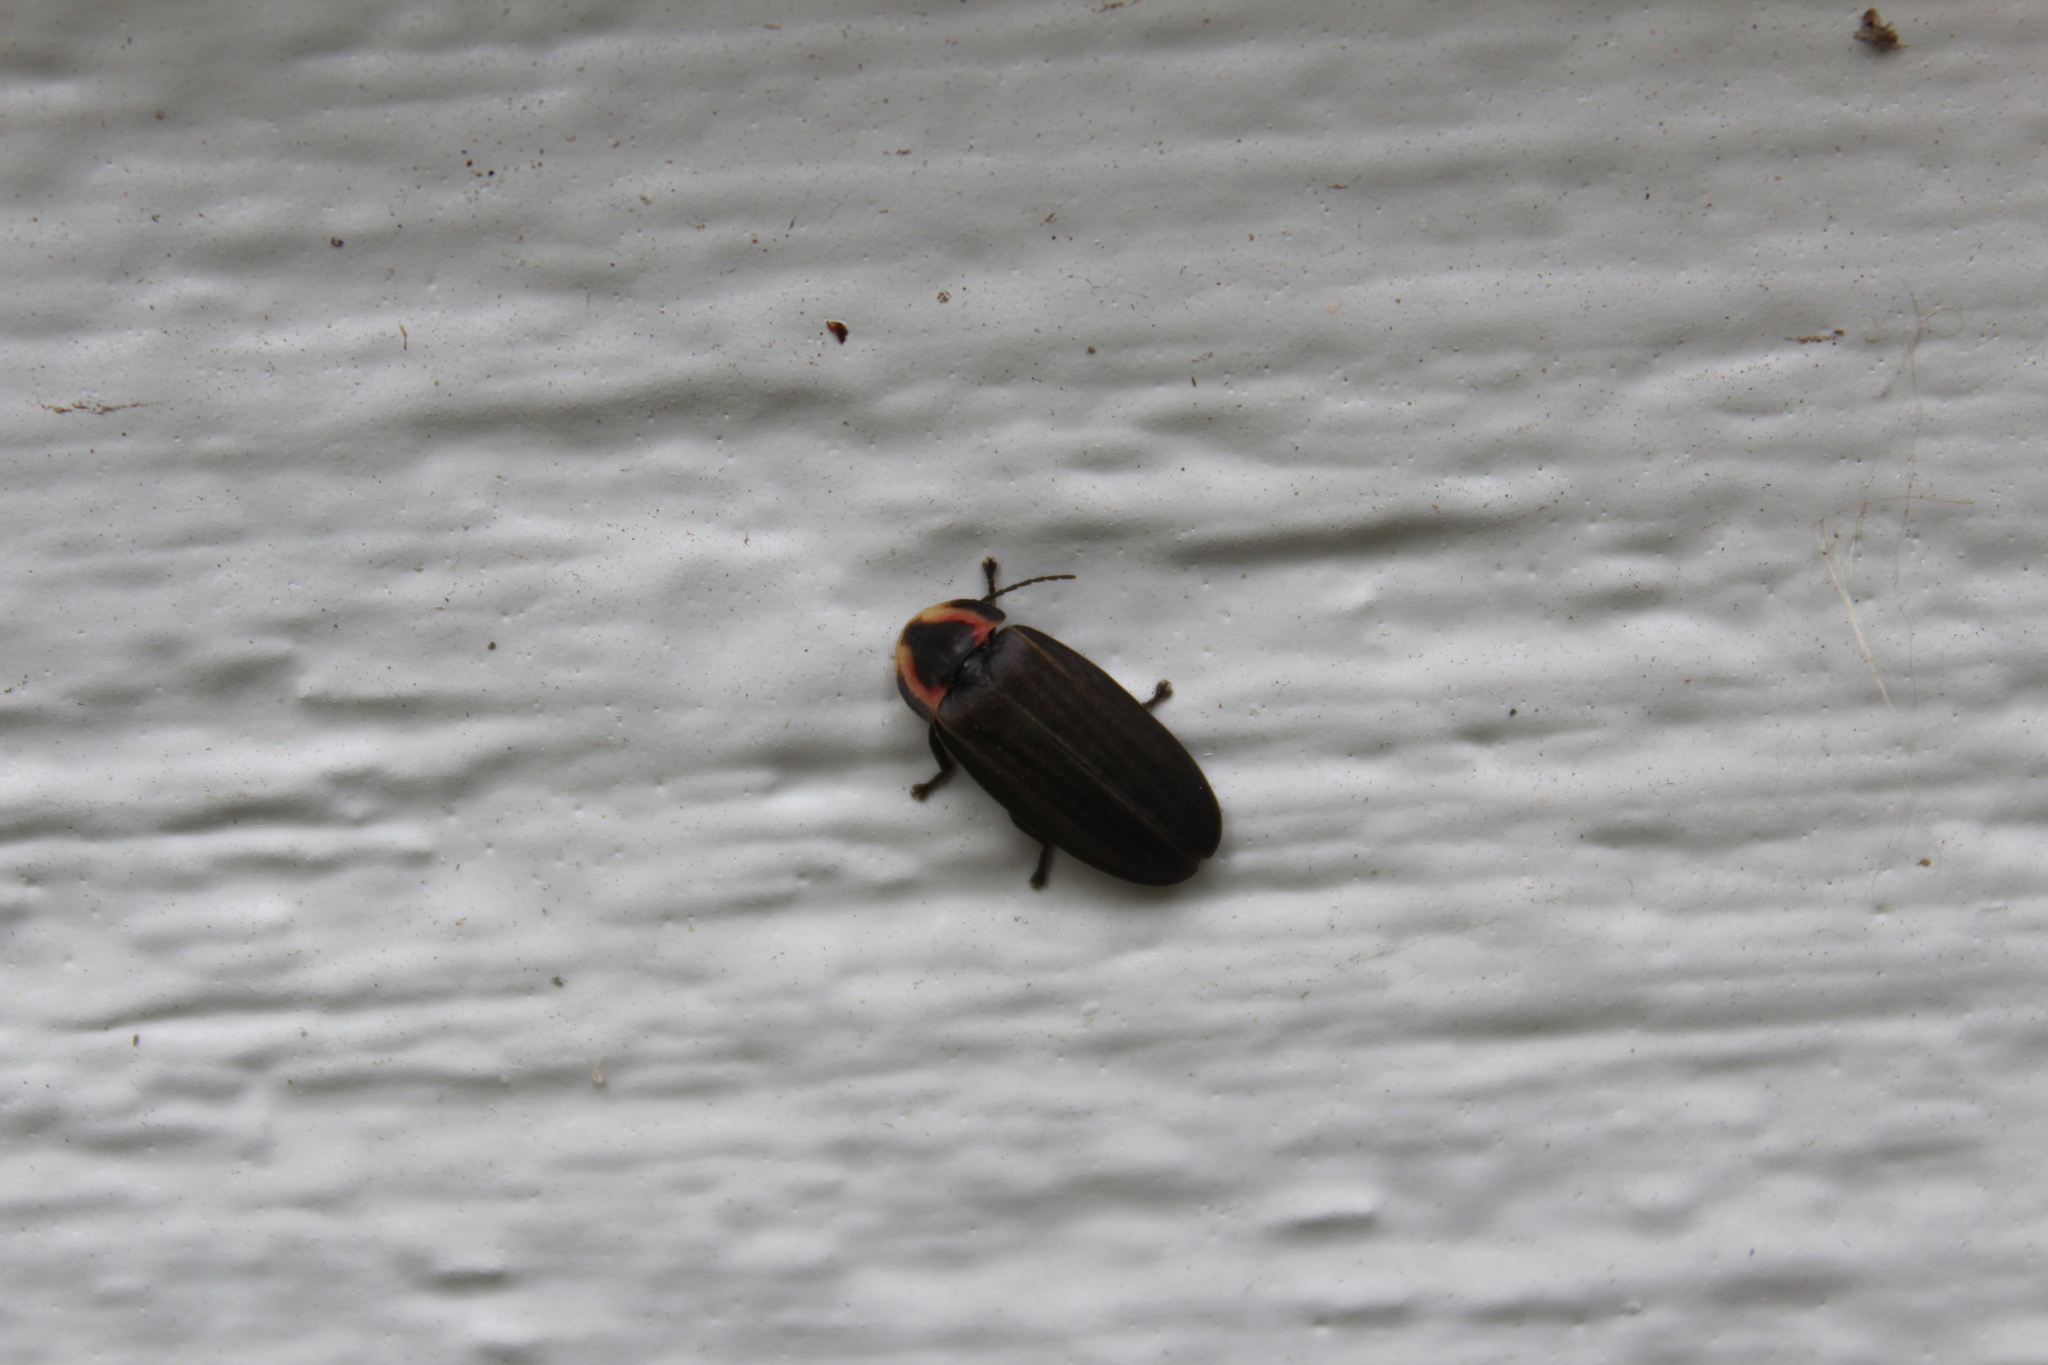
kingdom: Animalia
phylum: Arthropoda
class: Insecta
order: Coleoptera
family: Lampyridae
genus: Photinus
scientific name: Photinus corrusca
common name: Winter firefly
